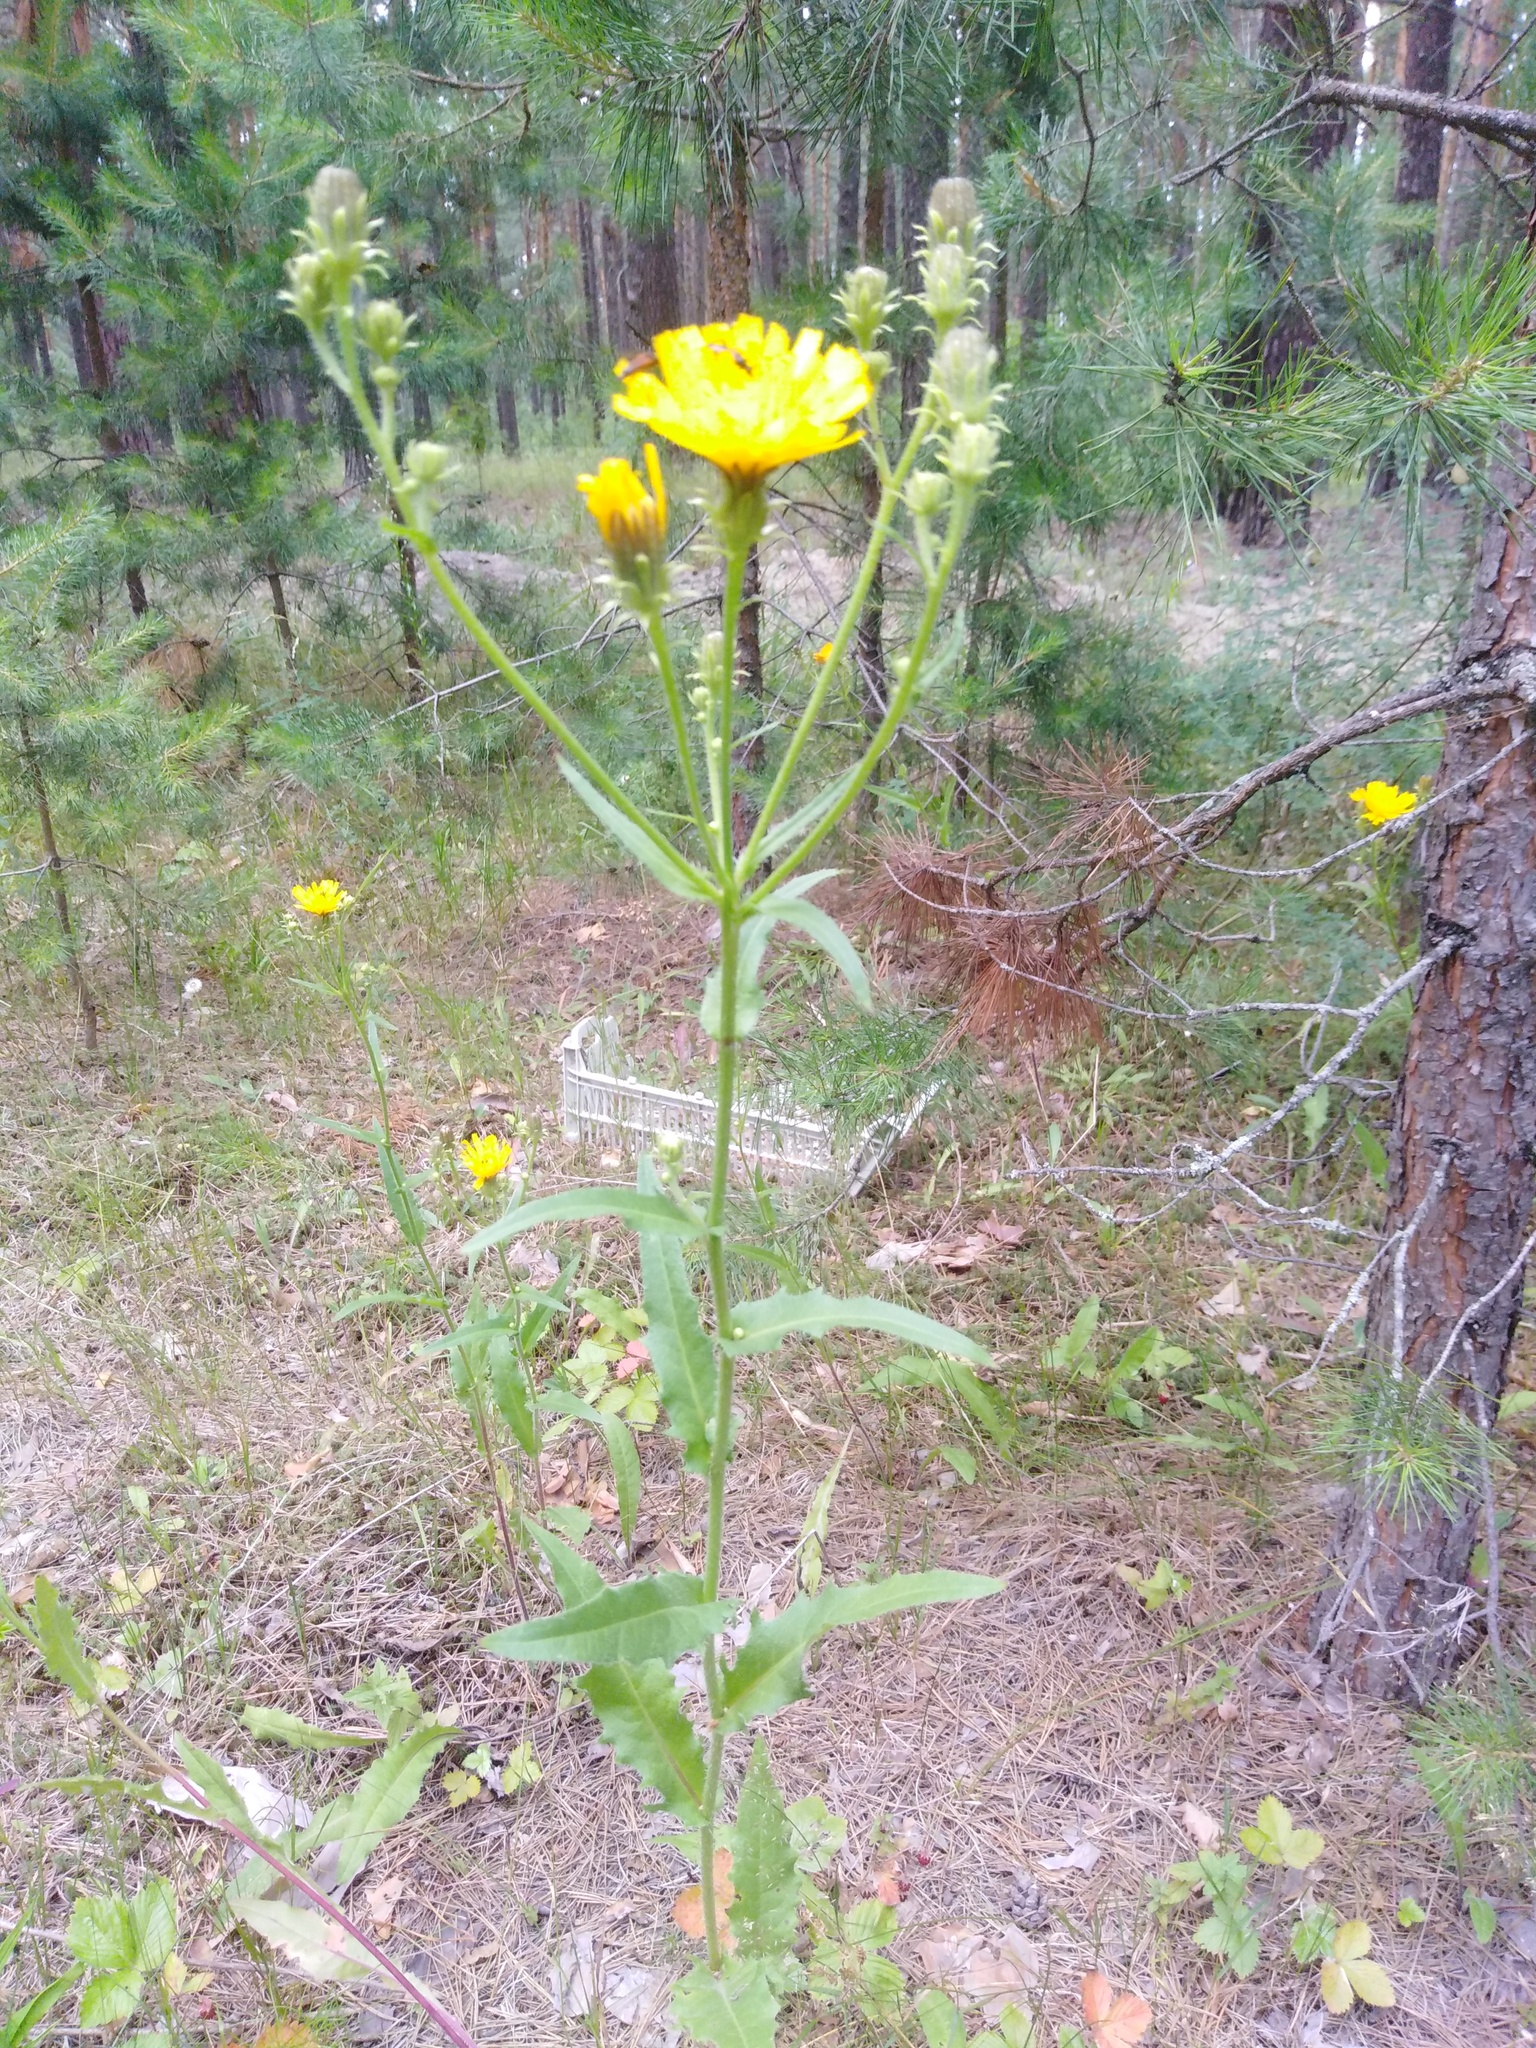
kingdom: Plantae
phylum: Tracheophyta
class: Magnoliopsida
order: Asterales
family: Asteraceae
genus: Picris
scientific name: Picris hieracioides
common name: Hawkweed oxtongue
